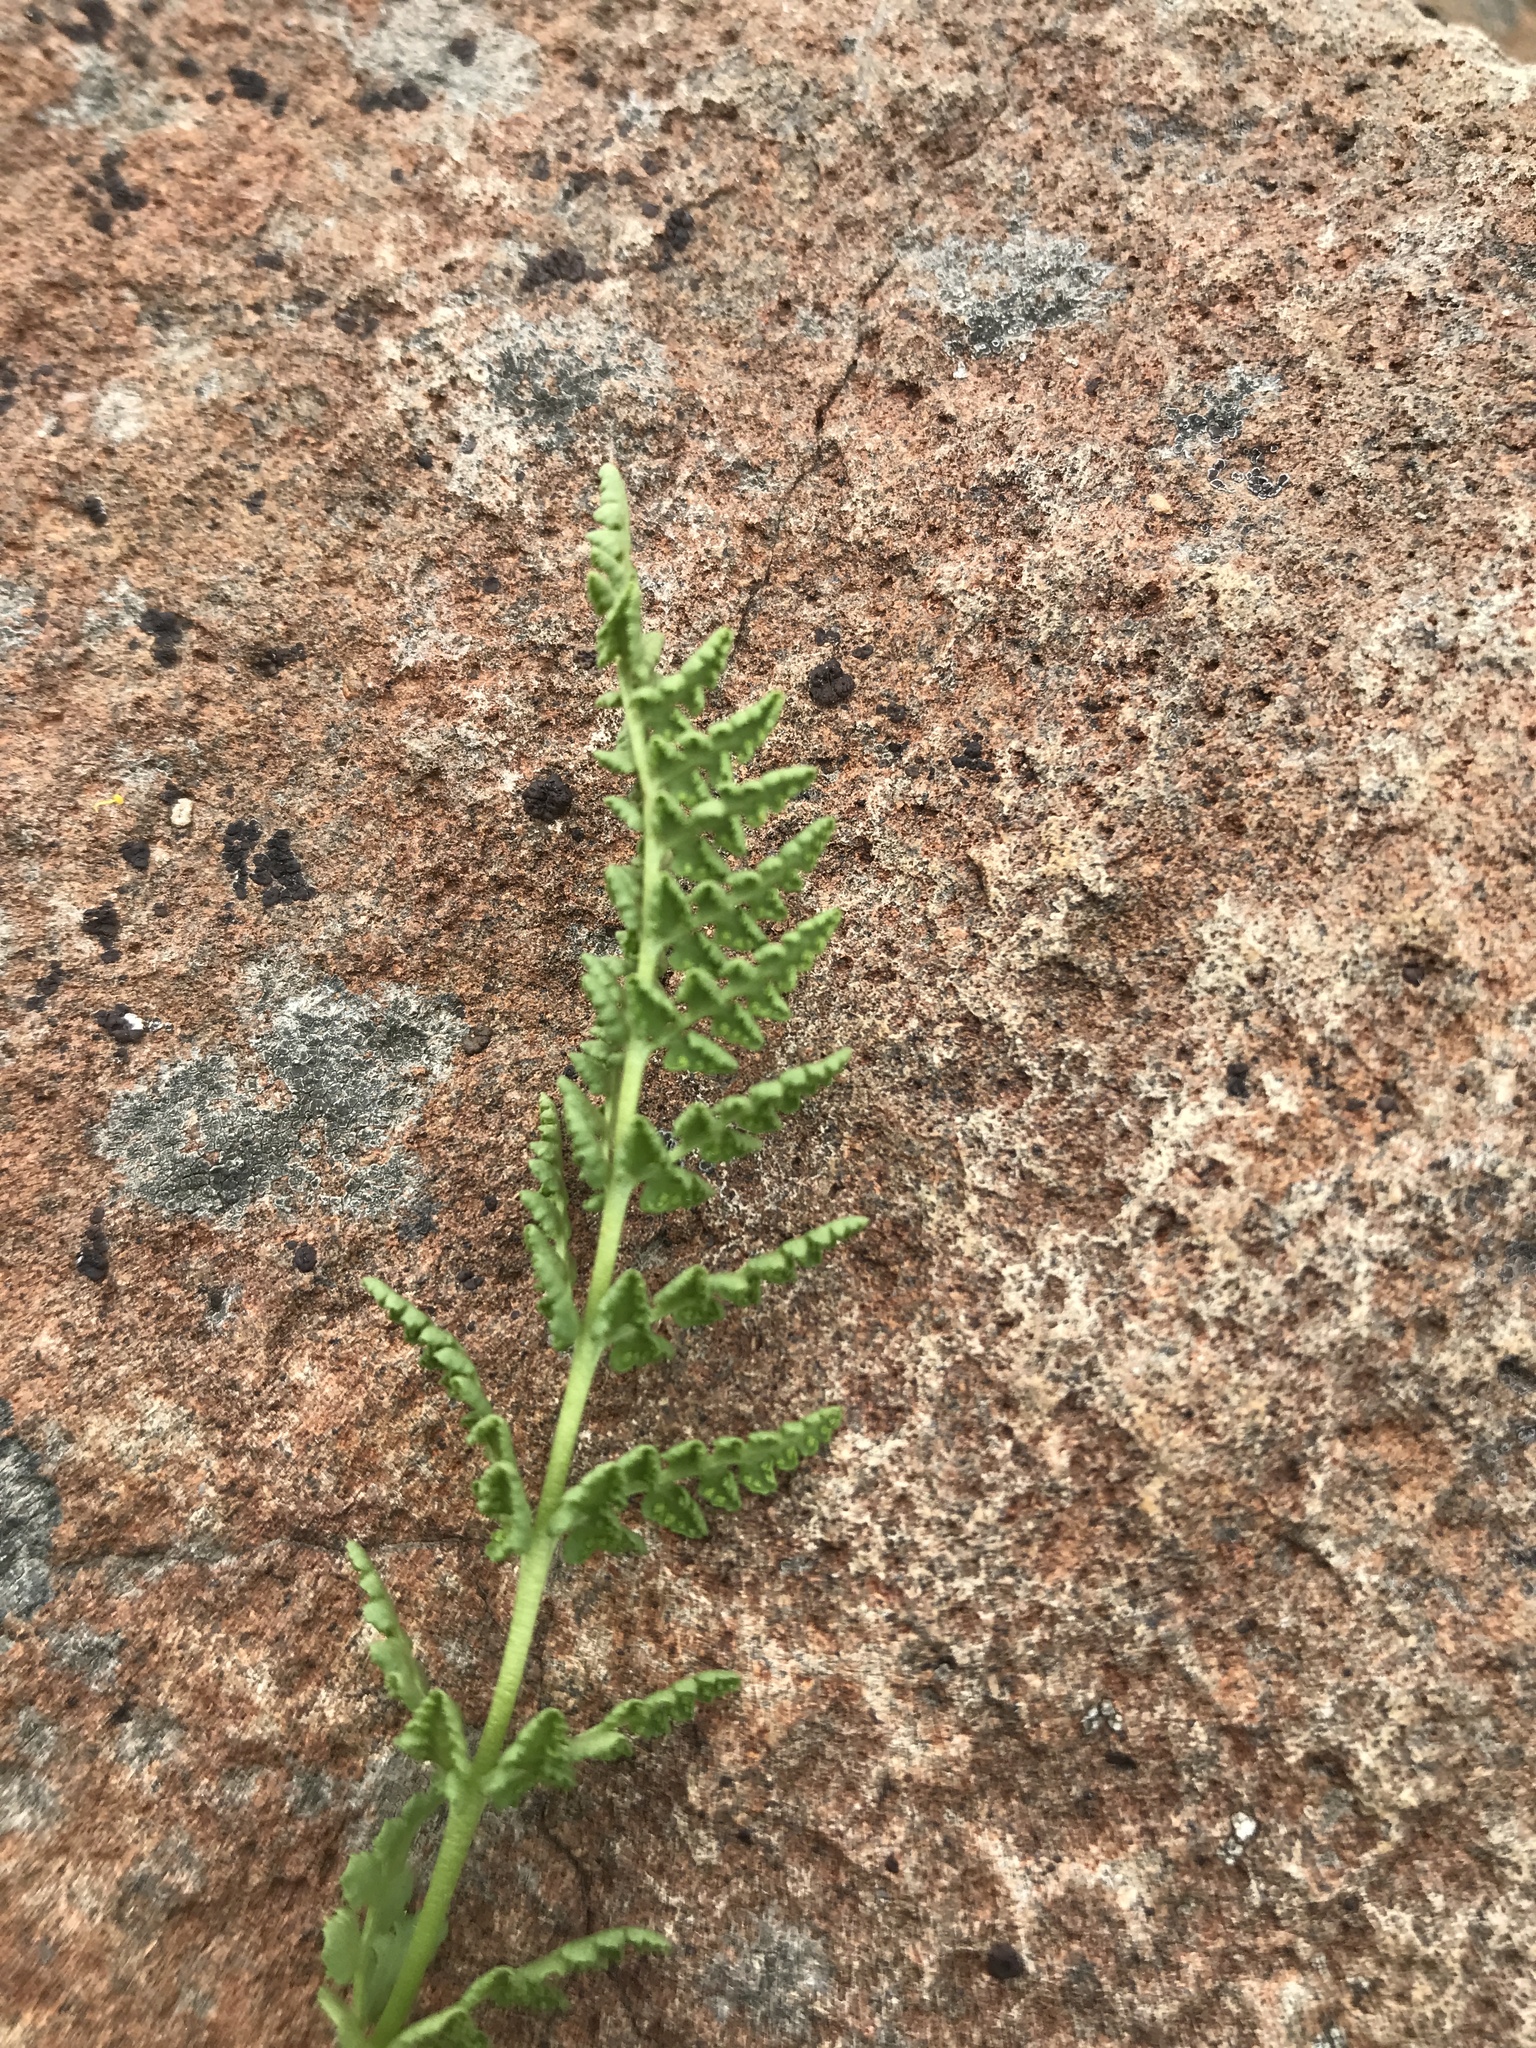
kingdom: Plantae
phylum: Tracheophyta
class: Polypodiopsida
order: Polypodiales
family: Woodsiaceae
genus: Physematium
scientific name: Physematium oreganum
